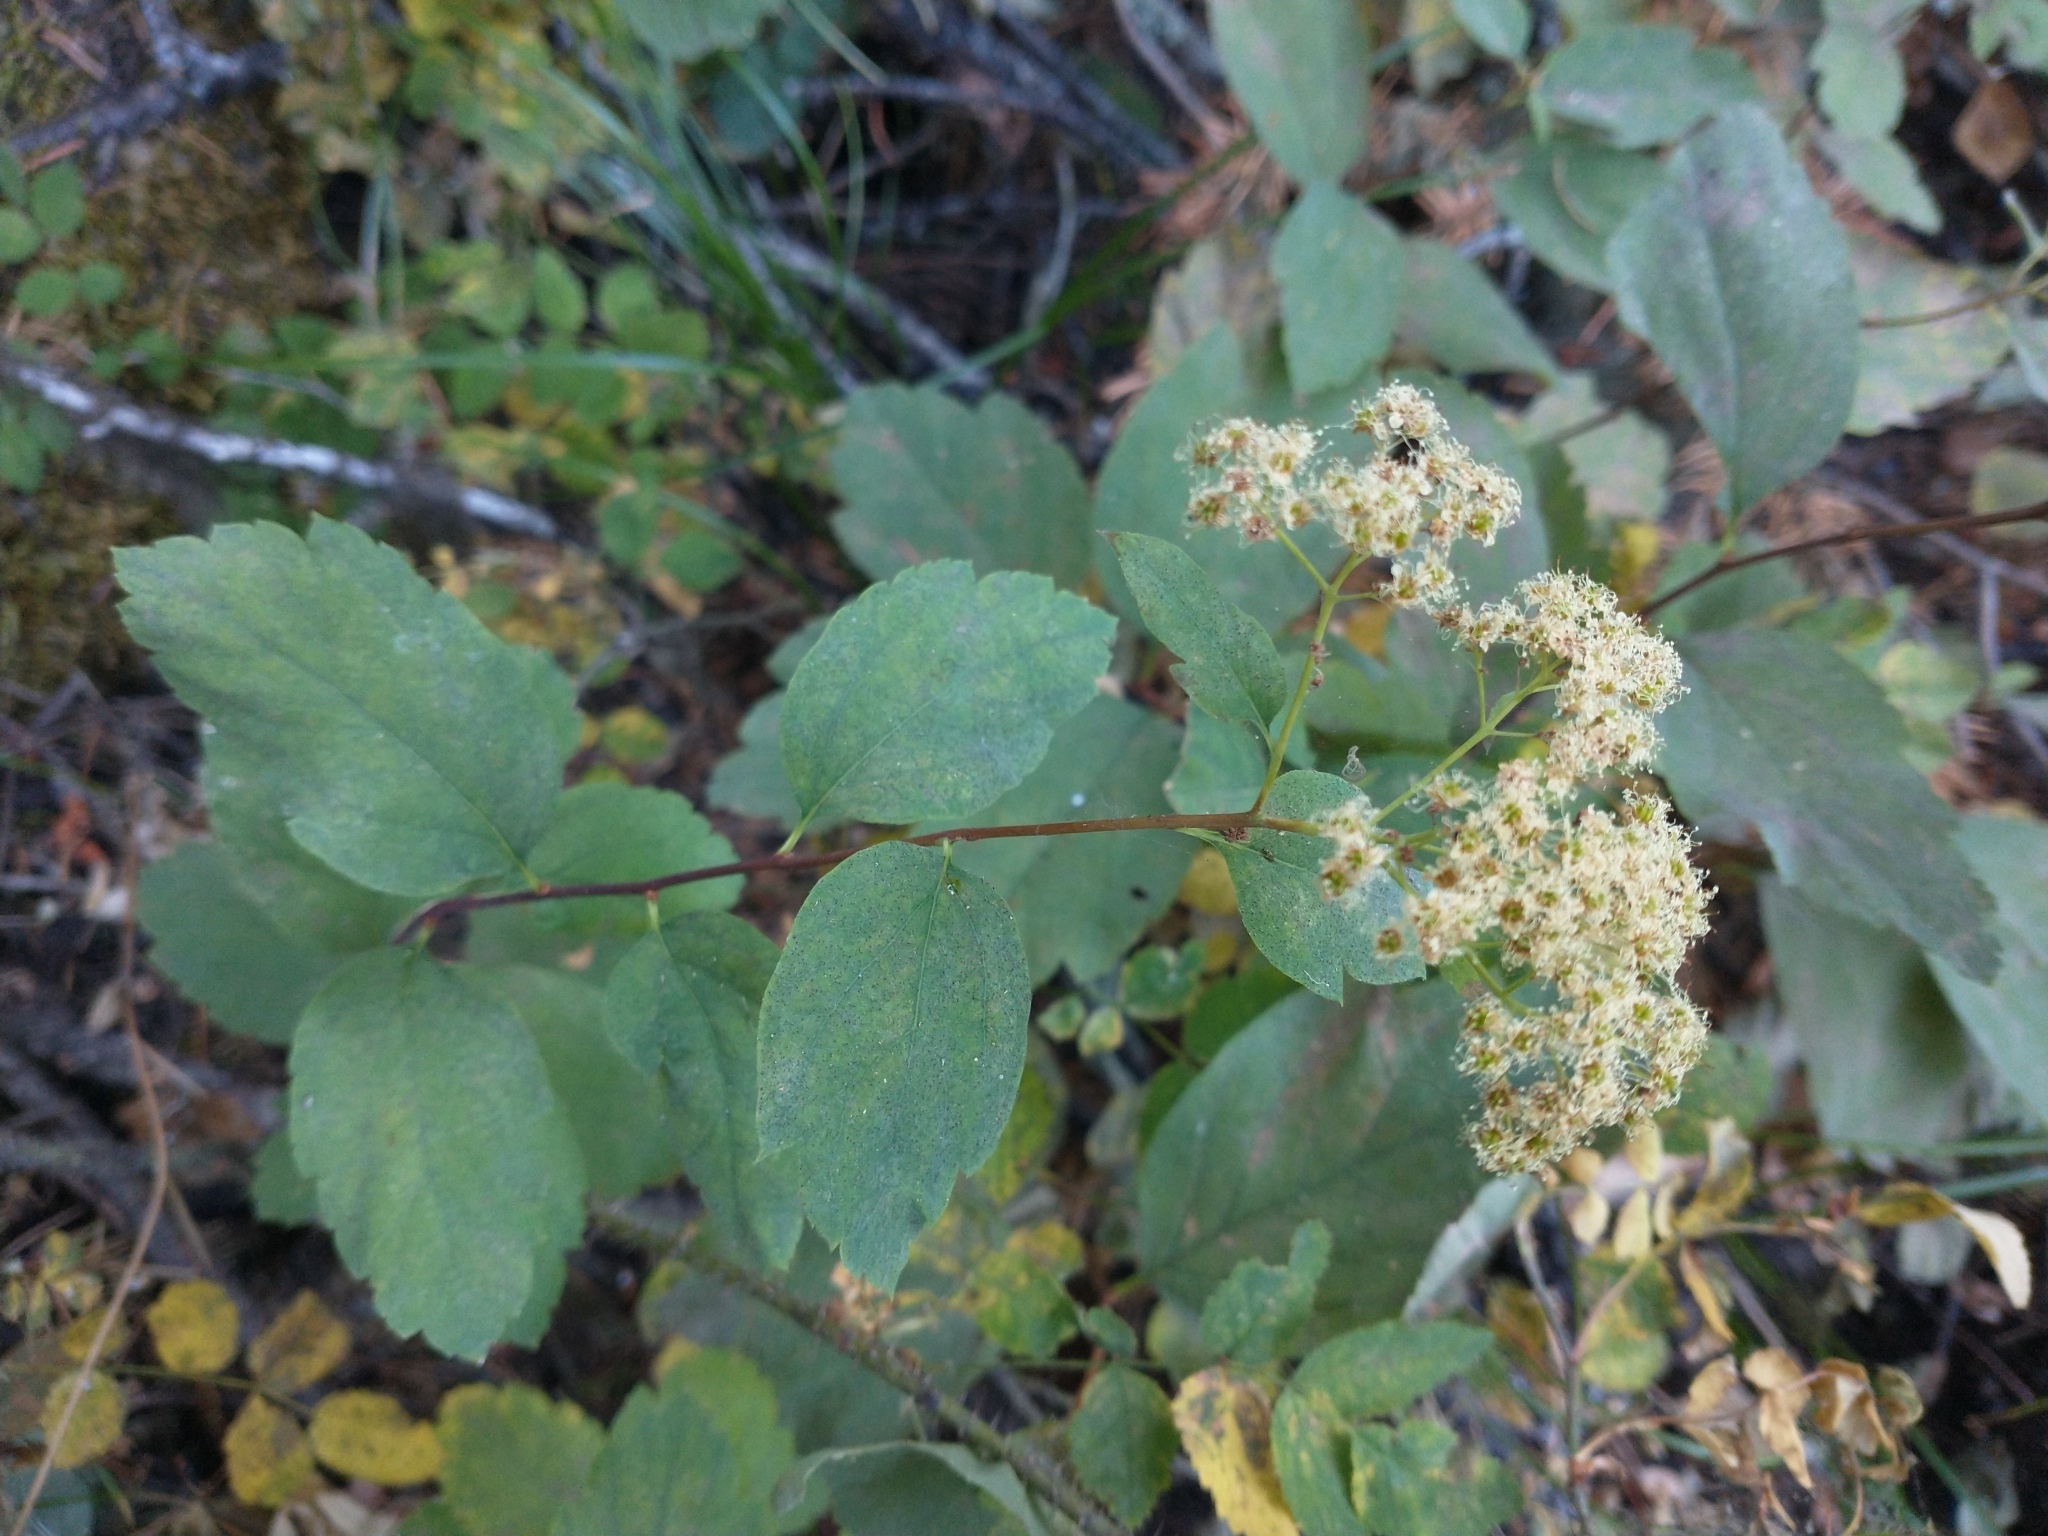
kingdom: Plantae
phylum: Tracheophyta
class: Magnoliopsida
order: Rosales
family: Rosaceae
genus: Spiraea
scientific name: Spiraea lucida
